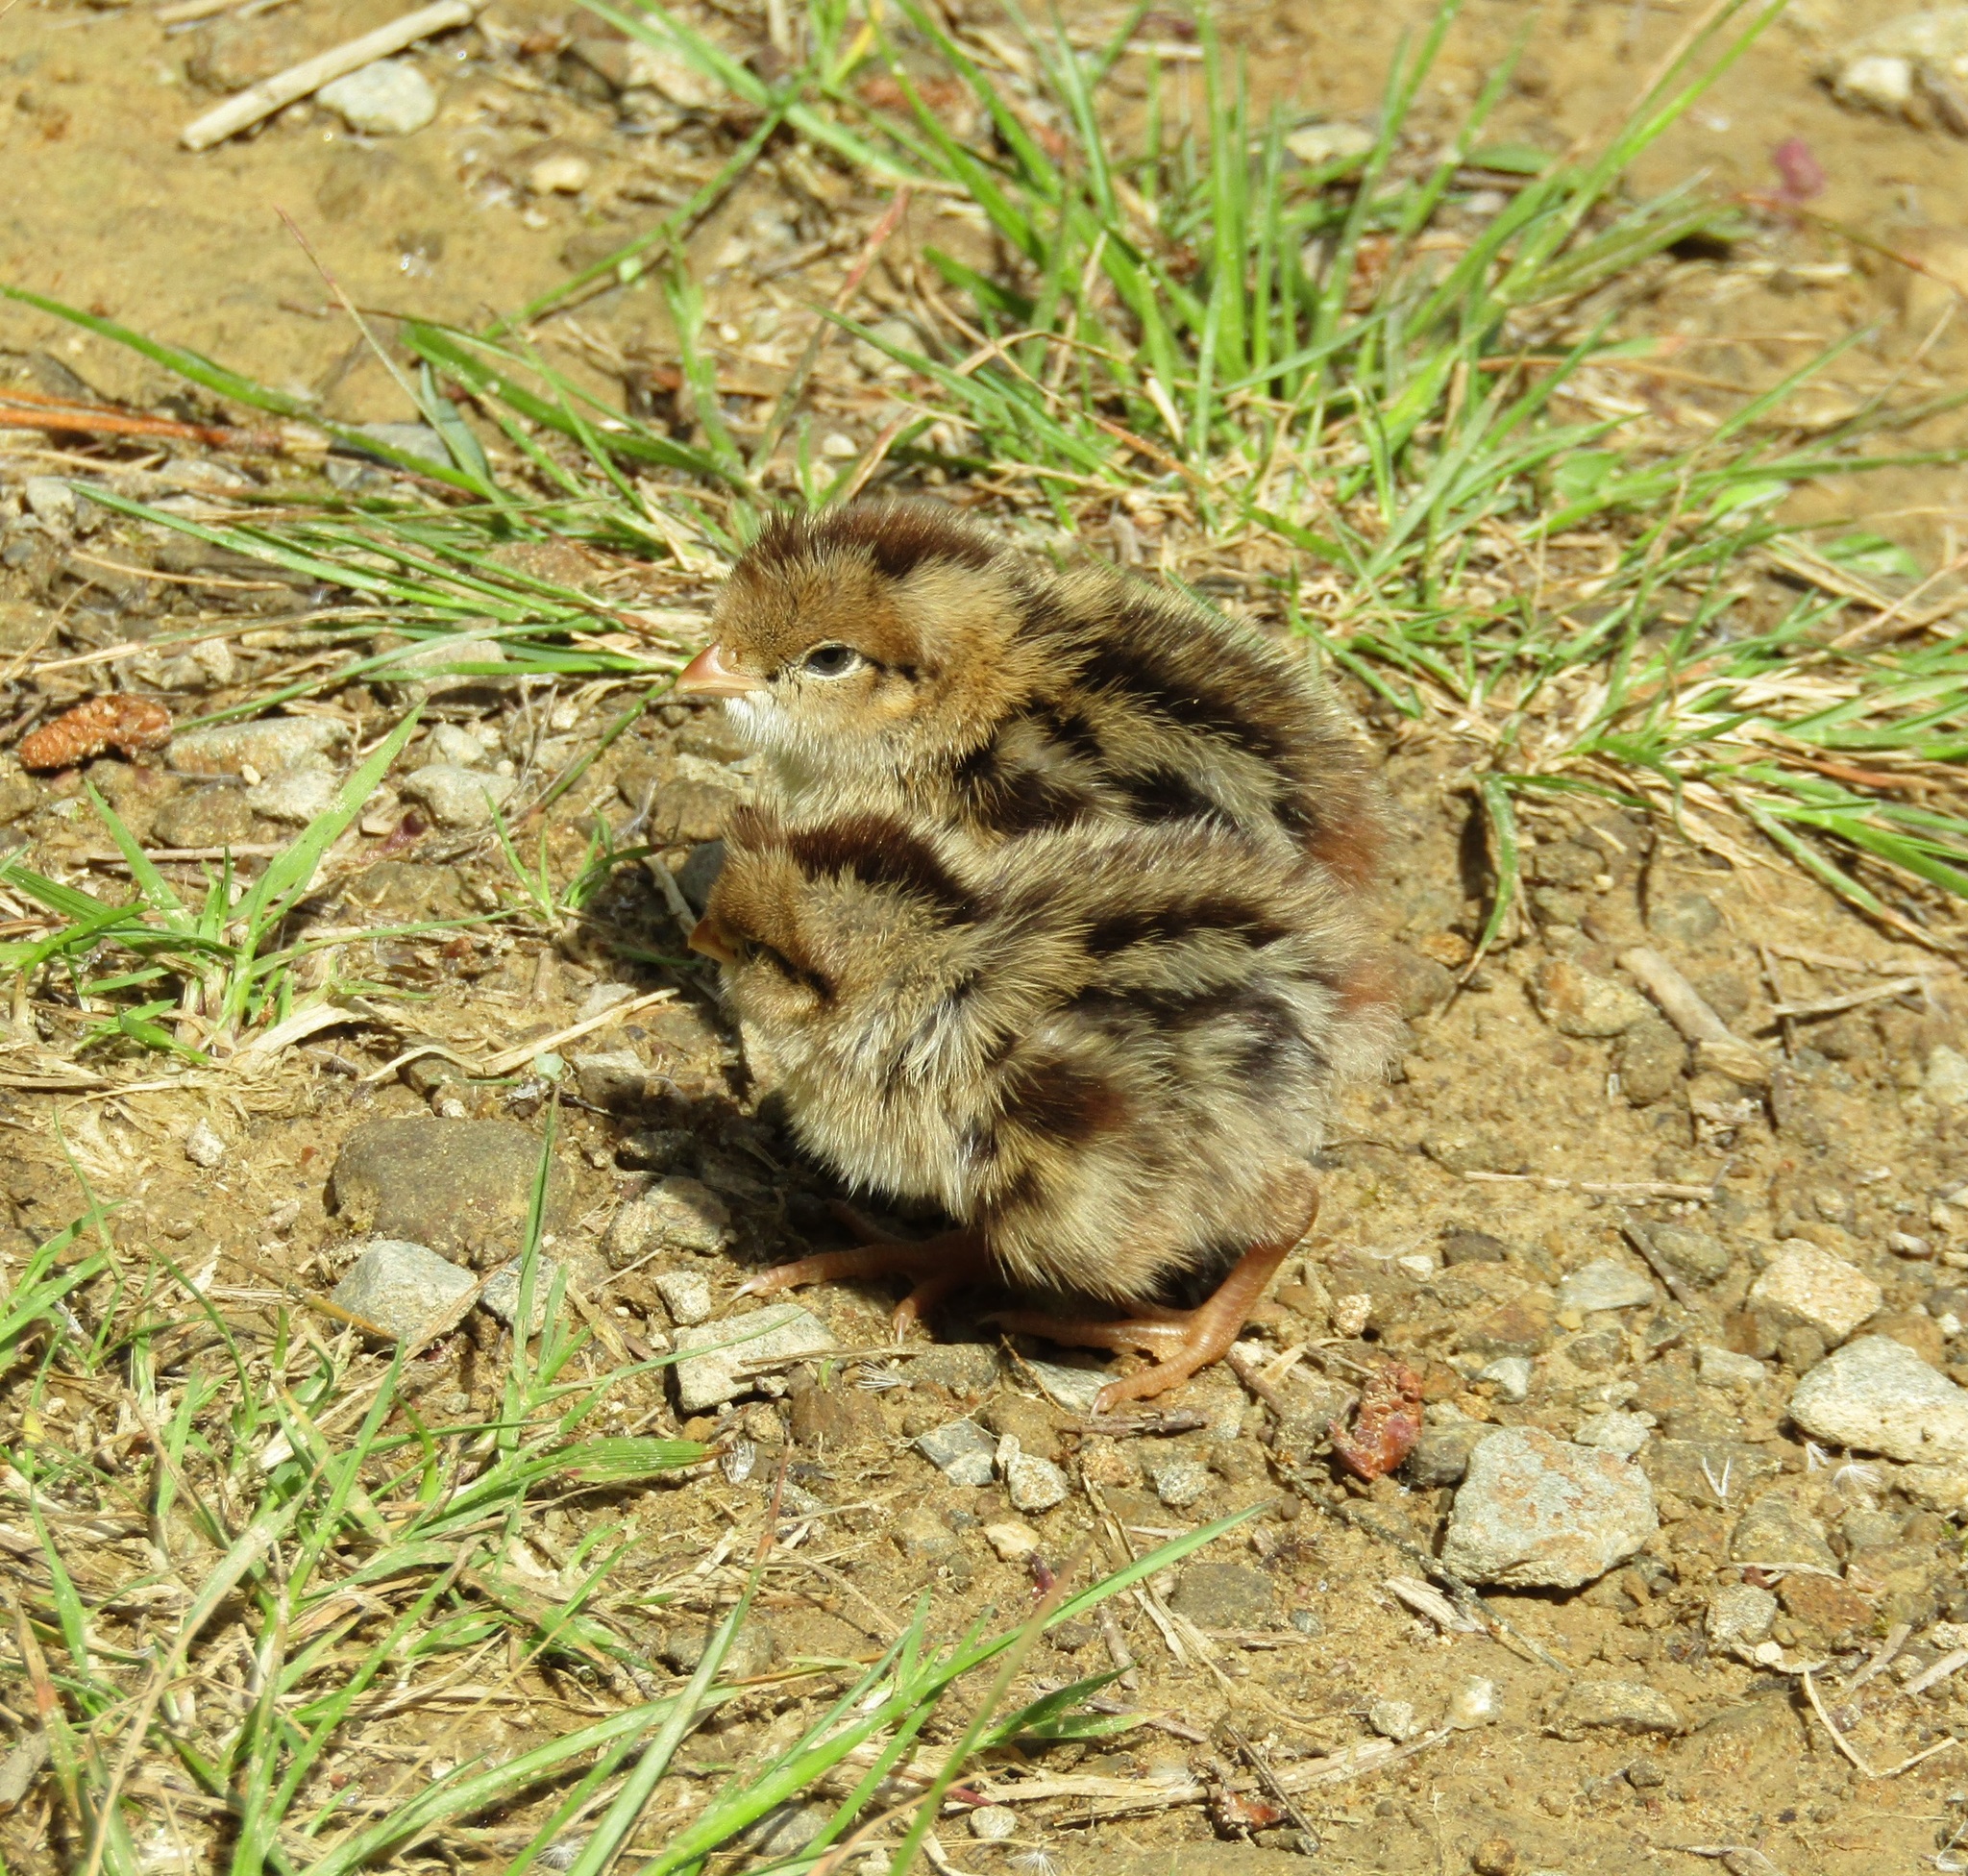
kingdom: Animalia
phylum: Chordata
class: Aves
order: Galliformes
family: Odontophoridae
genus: Callipepla
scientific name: Callipepla californica
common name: California quail
